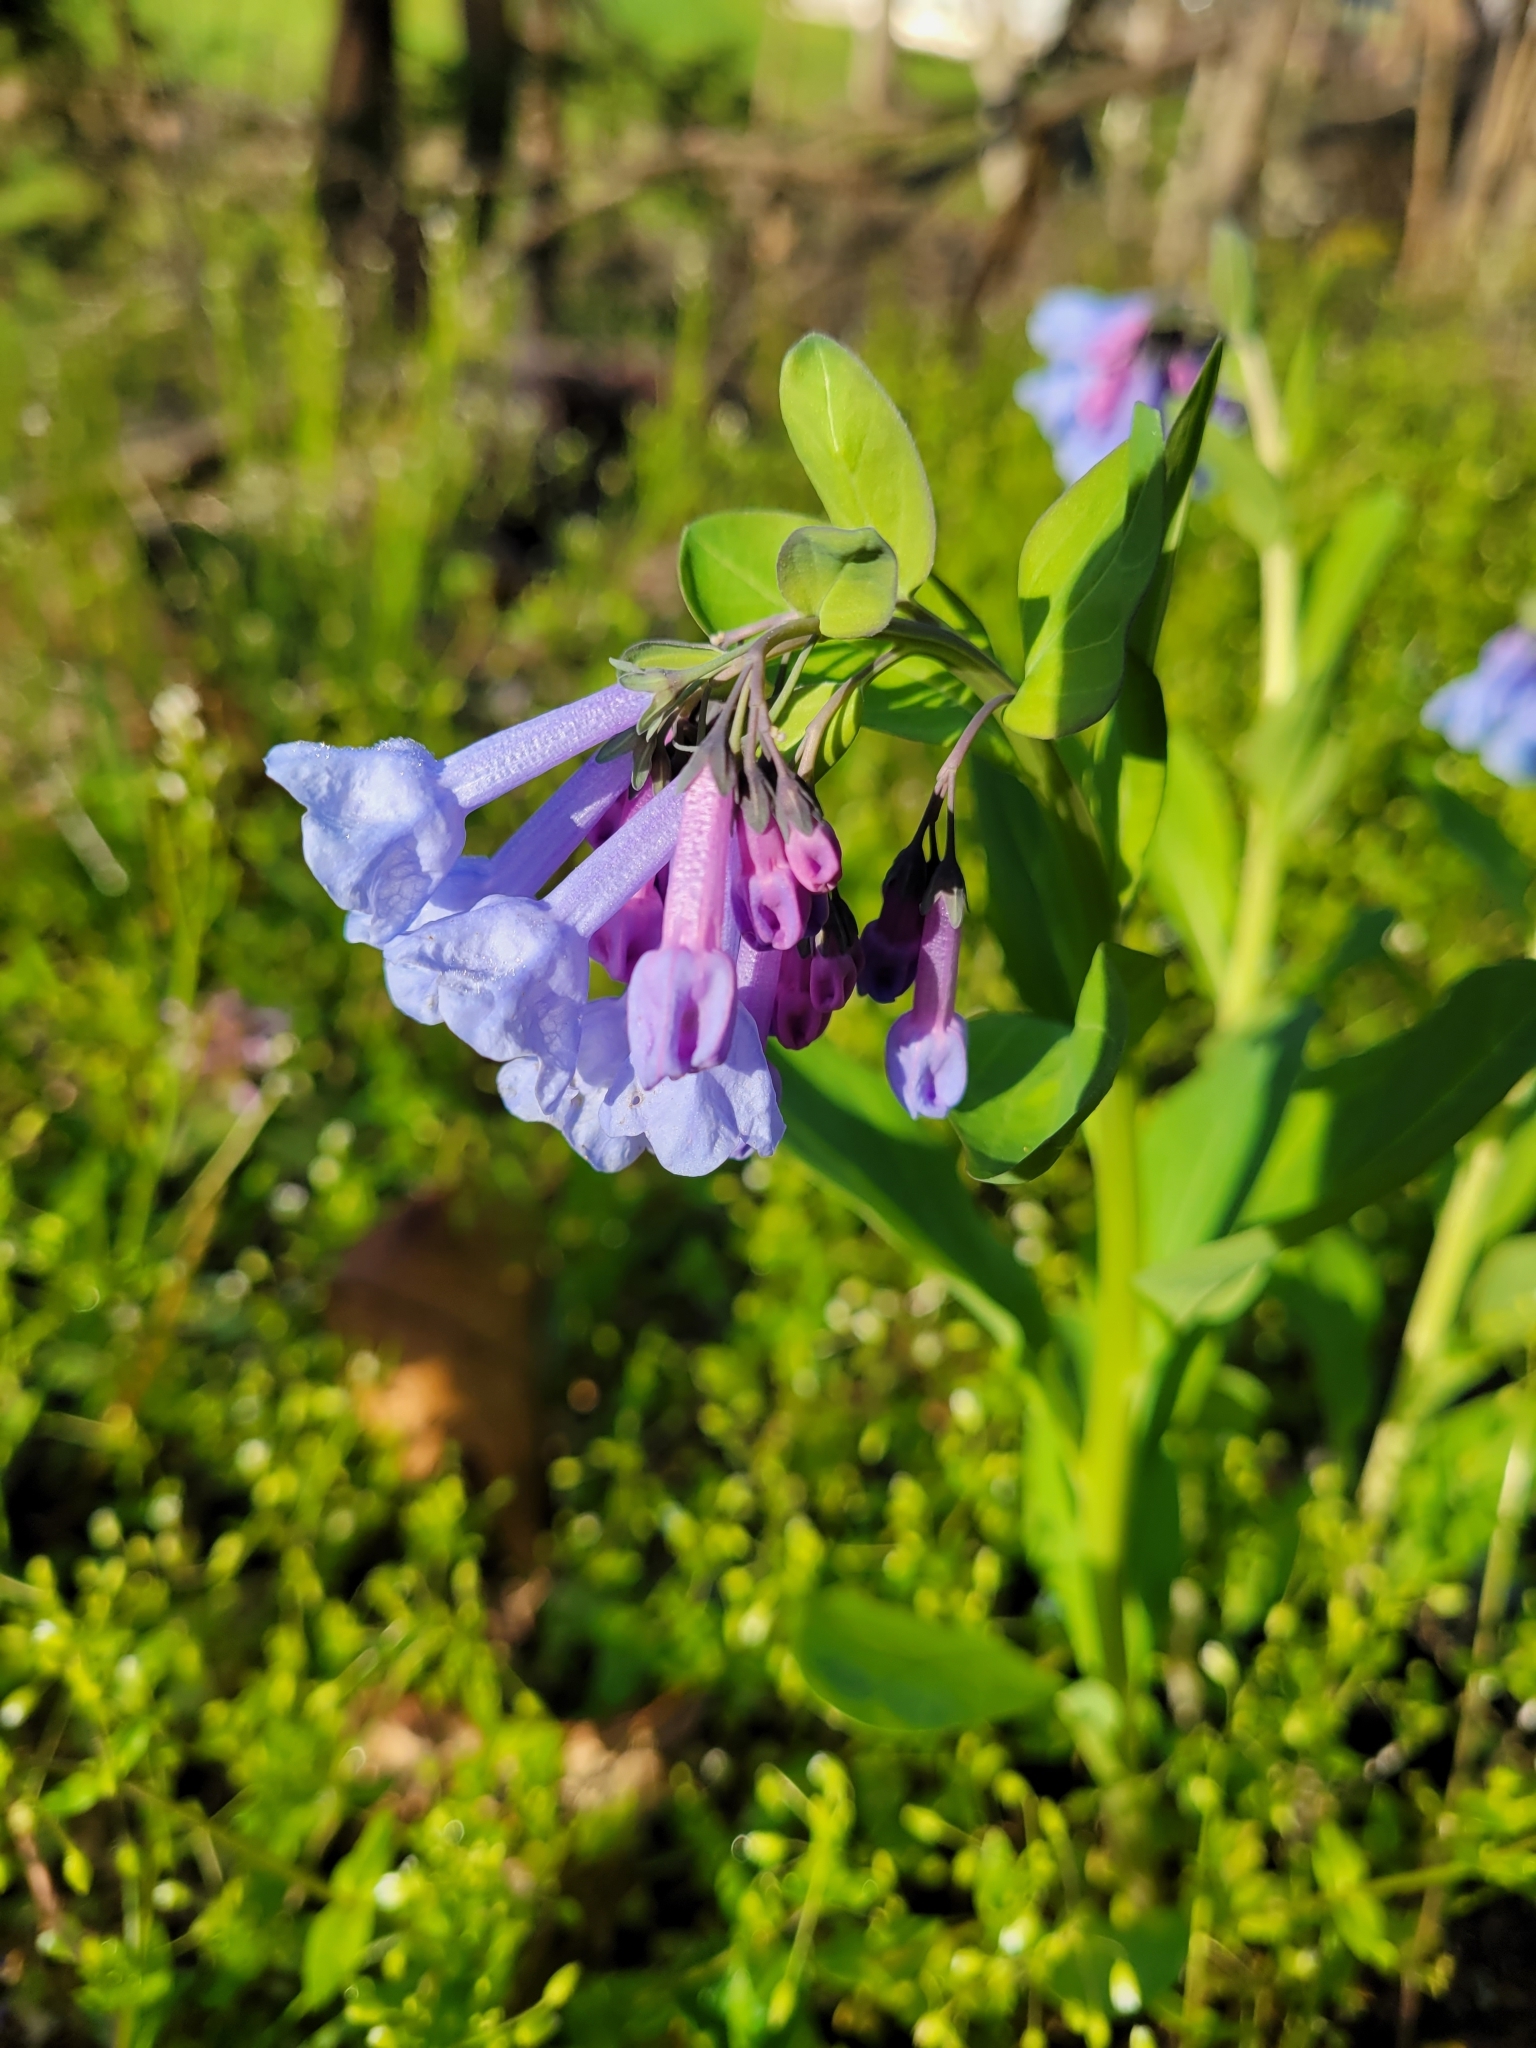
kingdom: Plantae
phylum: Tracheophyta
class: Magnoliopsida
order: Boraginales
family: Boraginaceae
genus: Mertensia
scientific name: Mertensia virginica
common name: Virginia bluebells
